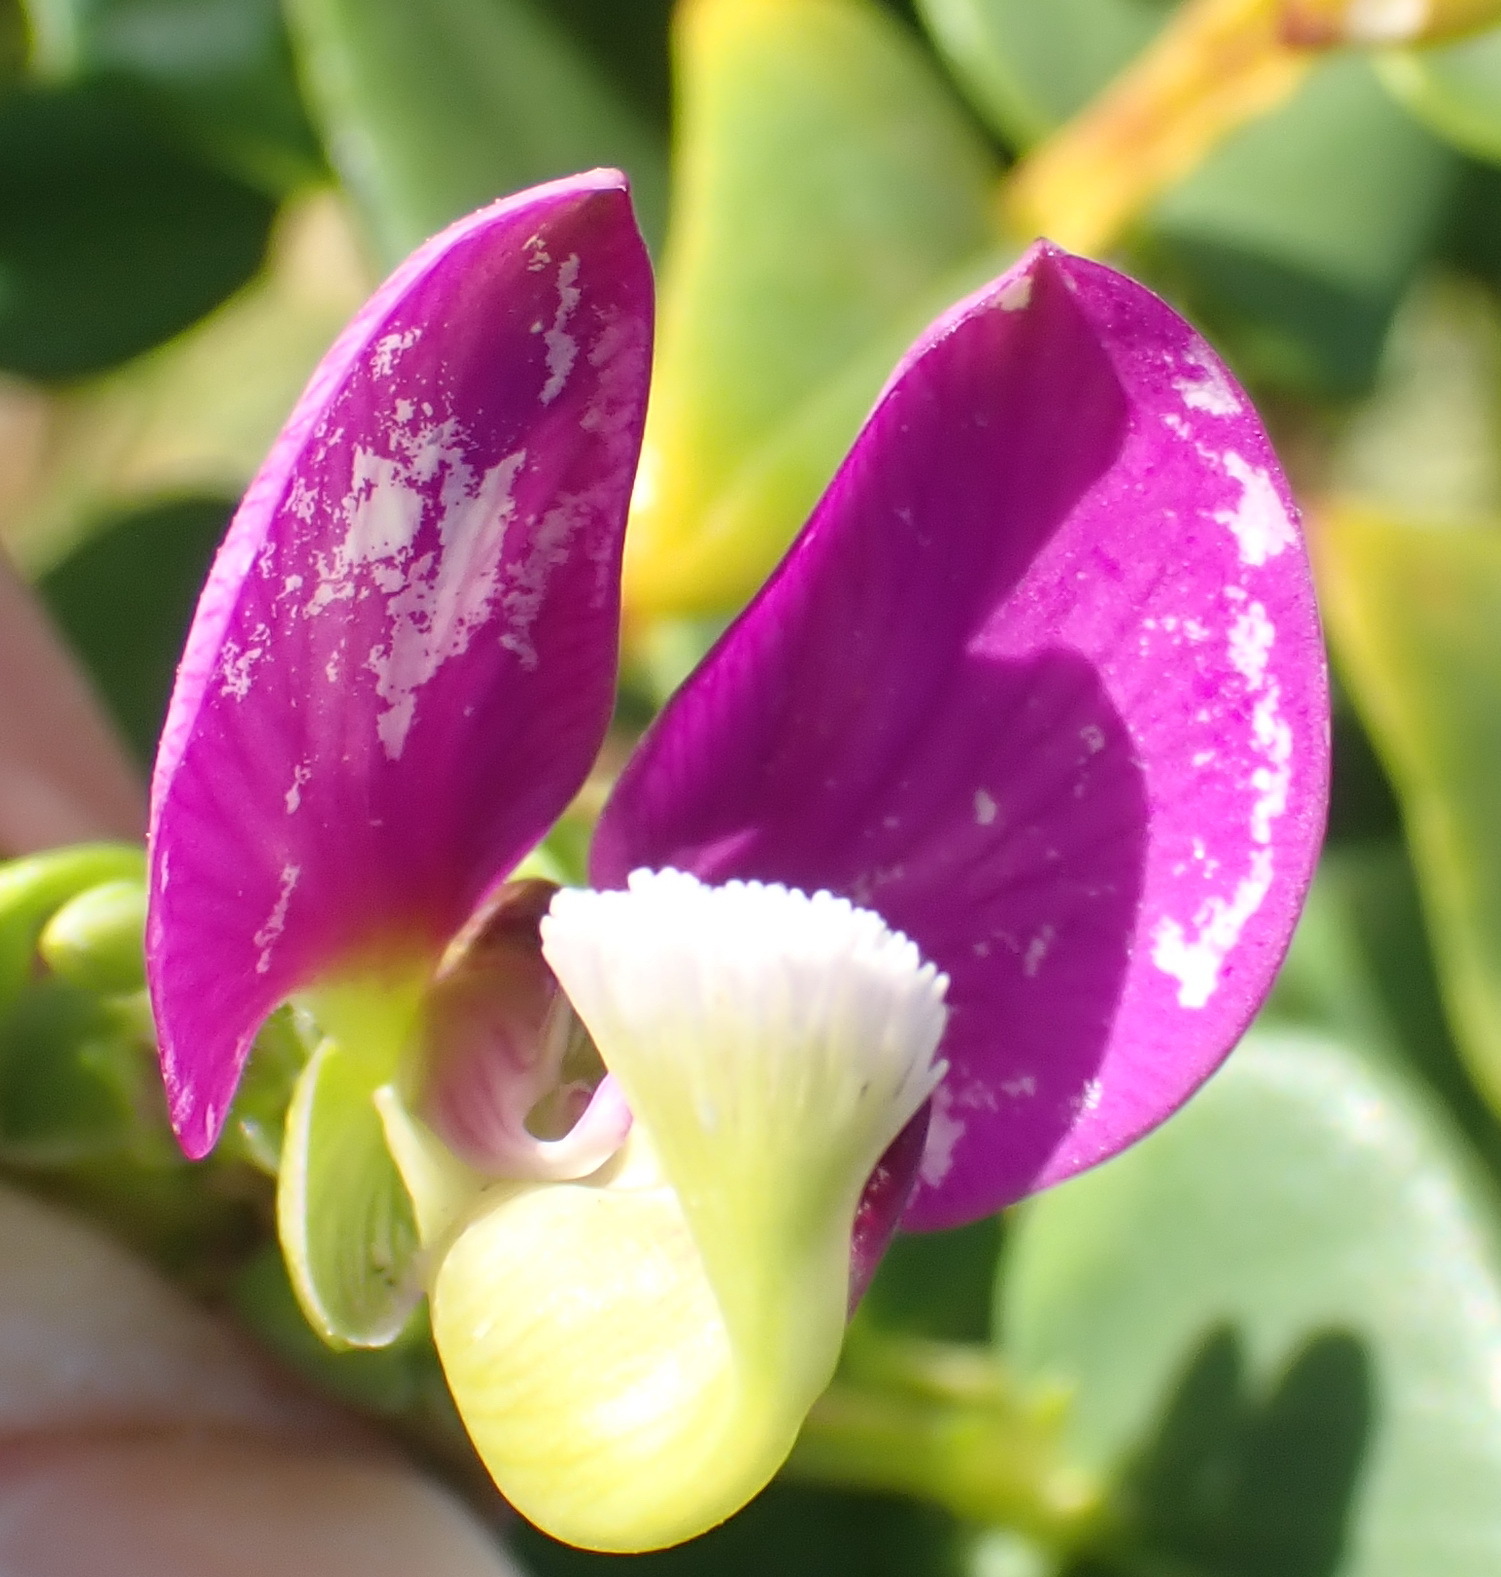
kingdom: Plantae
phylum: Tracheophyta
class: Magnoliopsida
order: Fabales
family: Polygalaceae
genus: Polygala
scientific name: Polygala fruticosa
